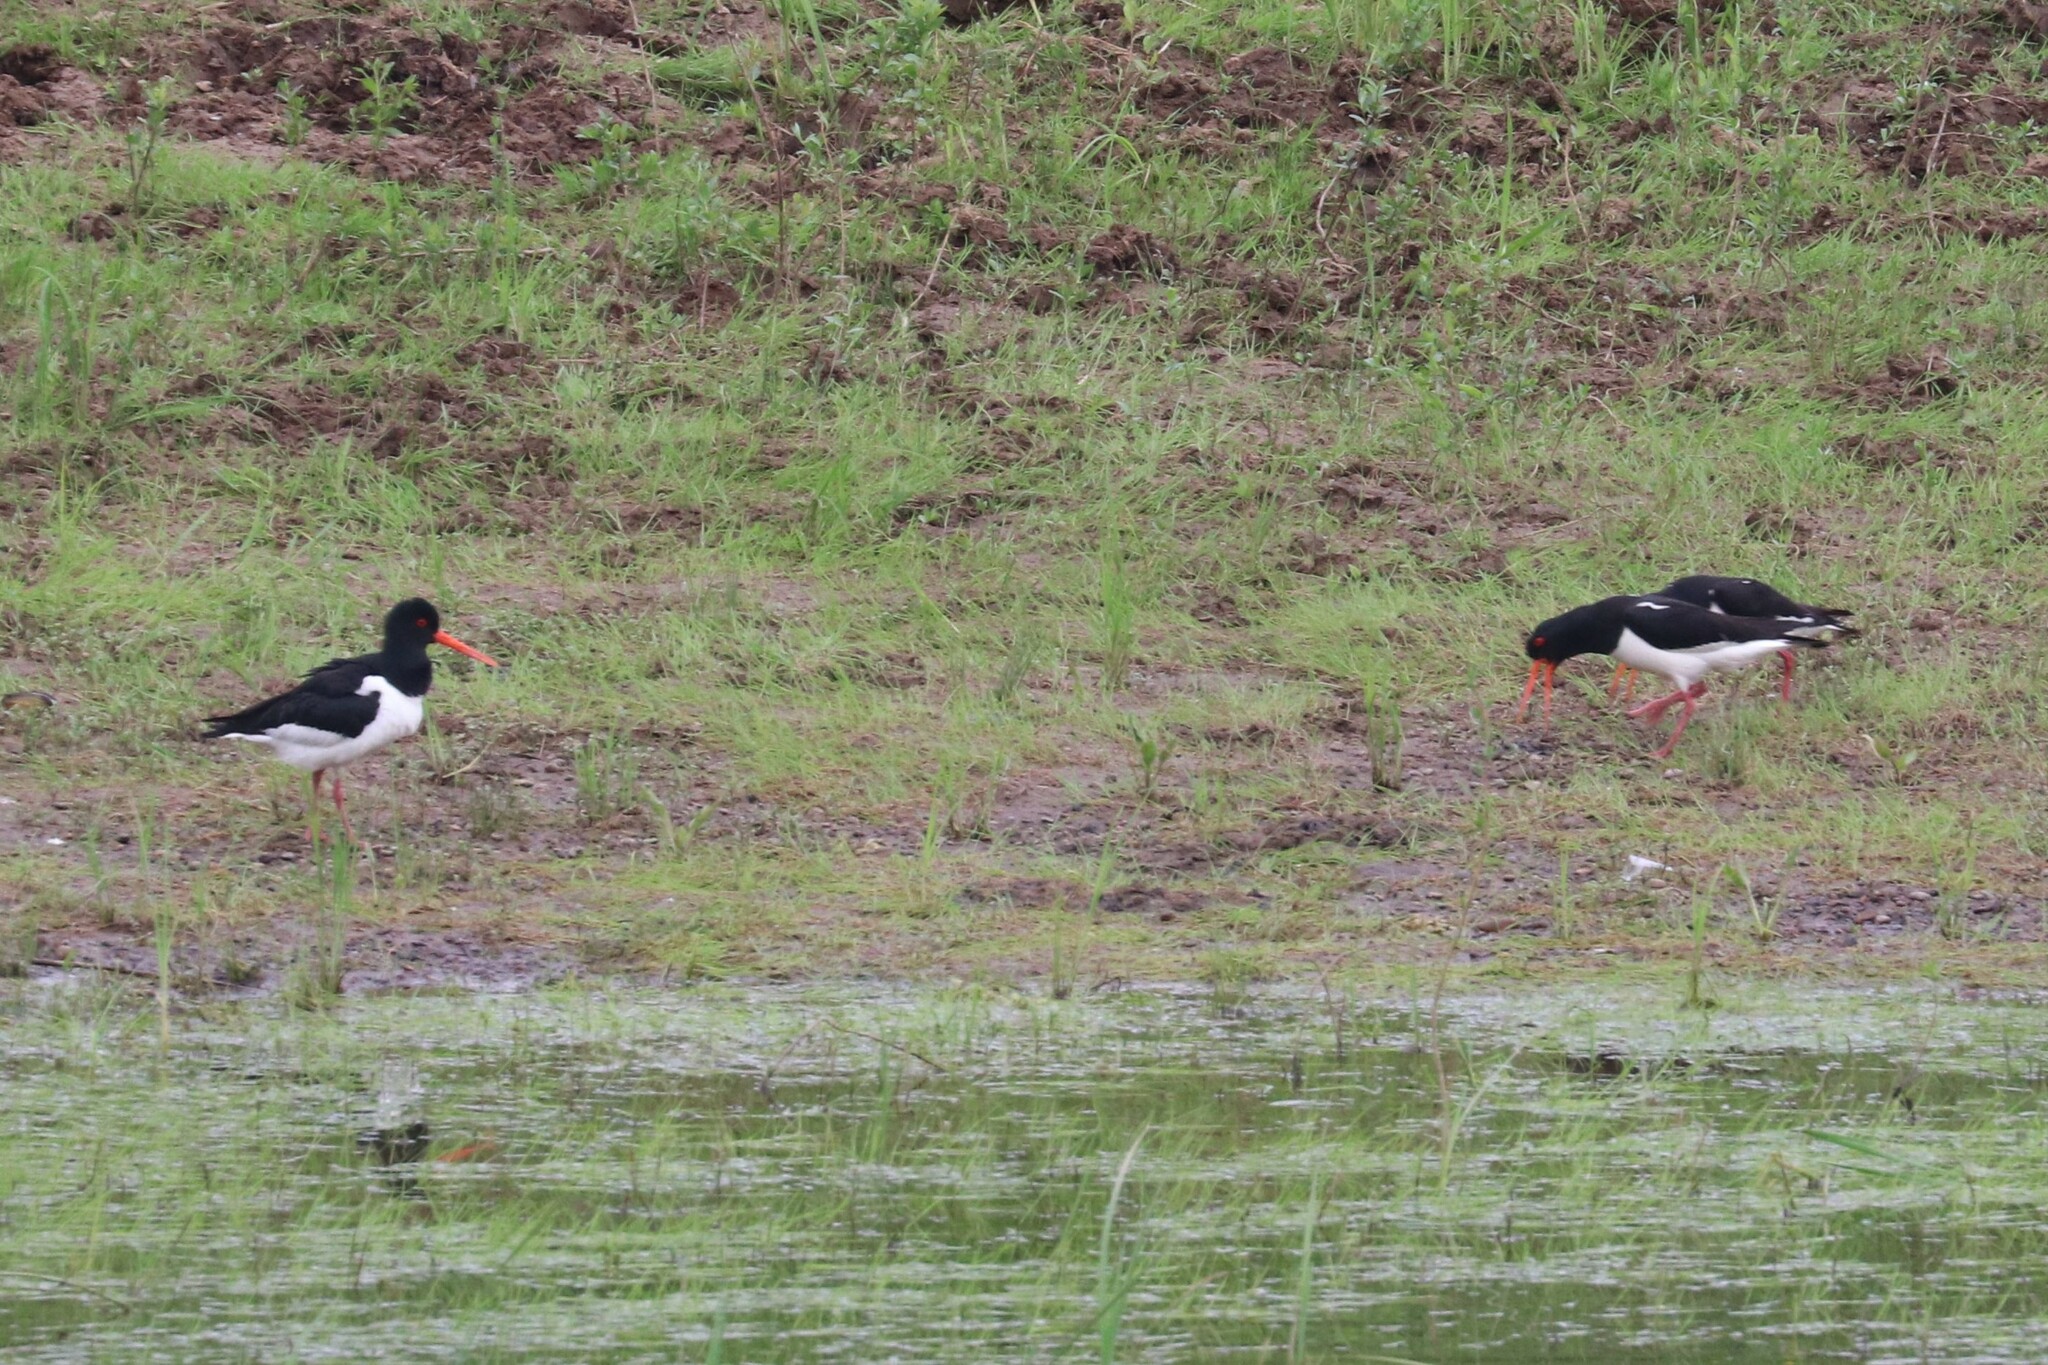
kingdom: Animalia
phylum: Chordata
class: Aves
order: Charadriiformes
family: Haematopodidae
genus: Haematopus
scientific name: Haematopus ostralegus
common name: Eurasian oystercatcher
